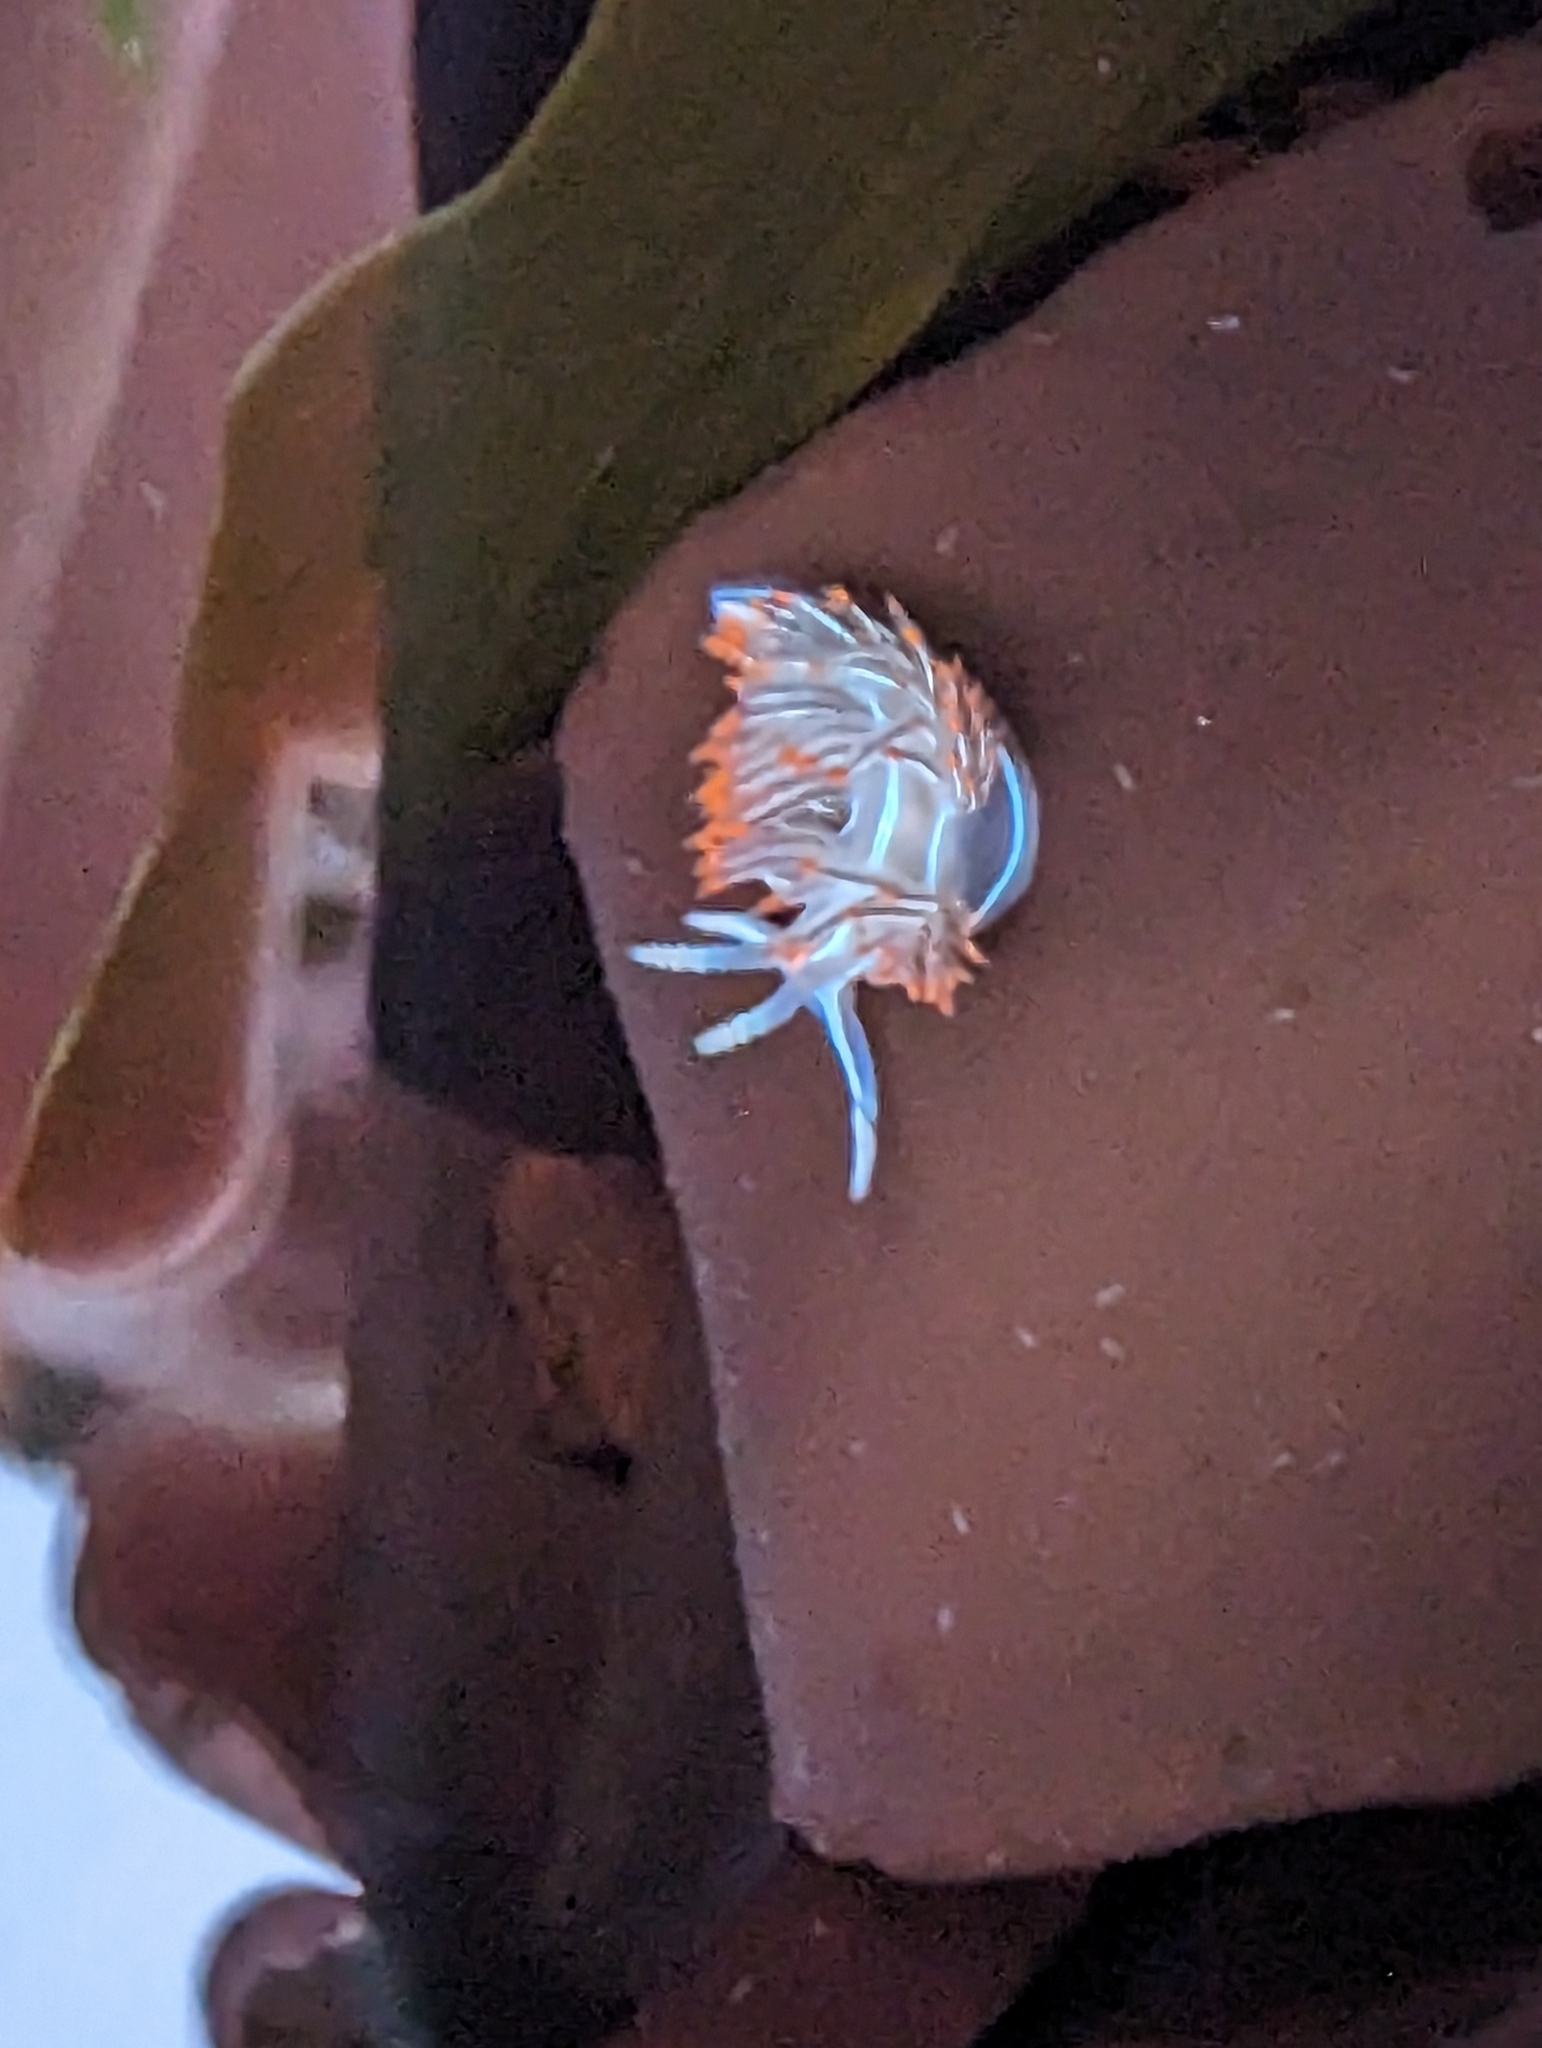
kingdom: Animalia
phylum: Mollusca
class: Gastropoda
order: Nudibranchia
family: Myrrhinidae
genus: Hermissenda
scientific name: Hermissenda crassicornis
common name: Hermissenda
